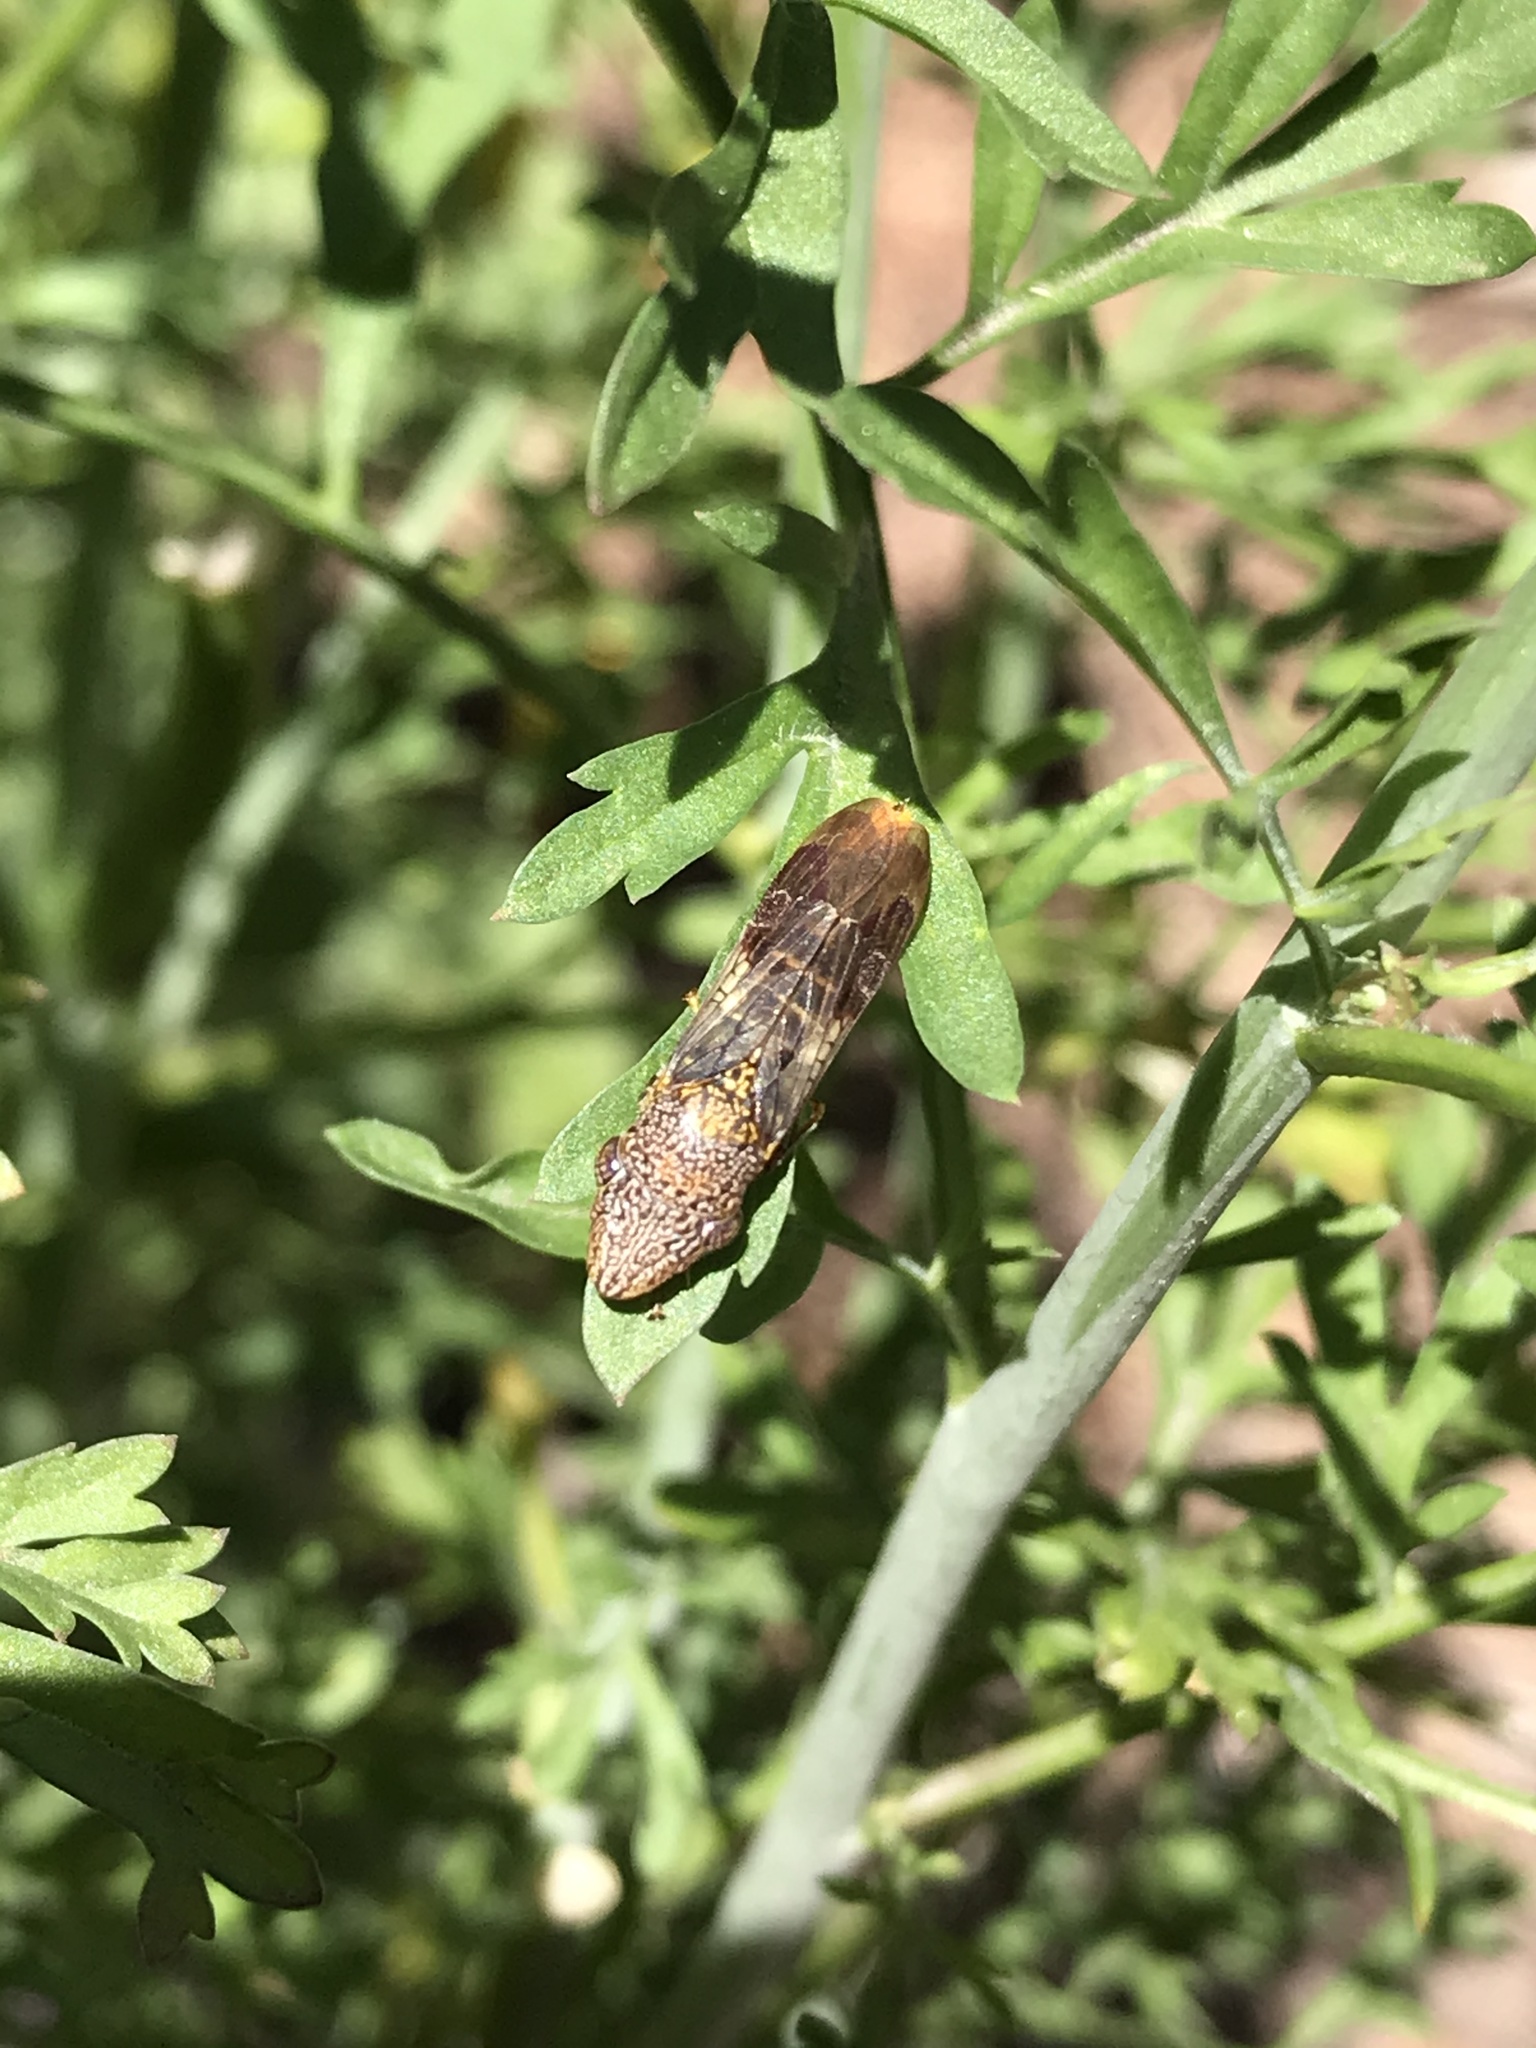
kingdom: Animalia
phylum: Arthropoda
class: Insecta
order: Hemiptera
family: Cicadellidae
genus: Homalodisca
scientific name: Homalodisca liturata
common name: Lacertate sharpshooter
